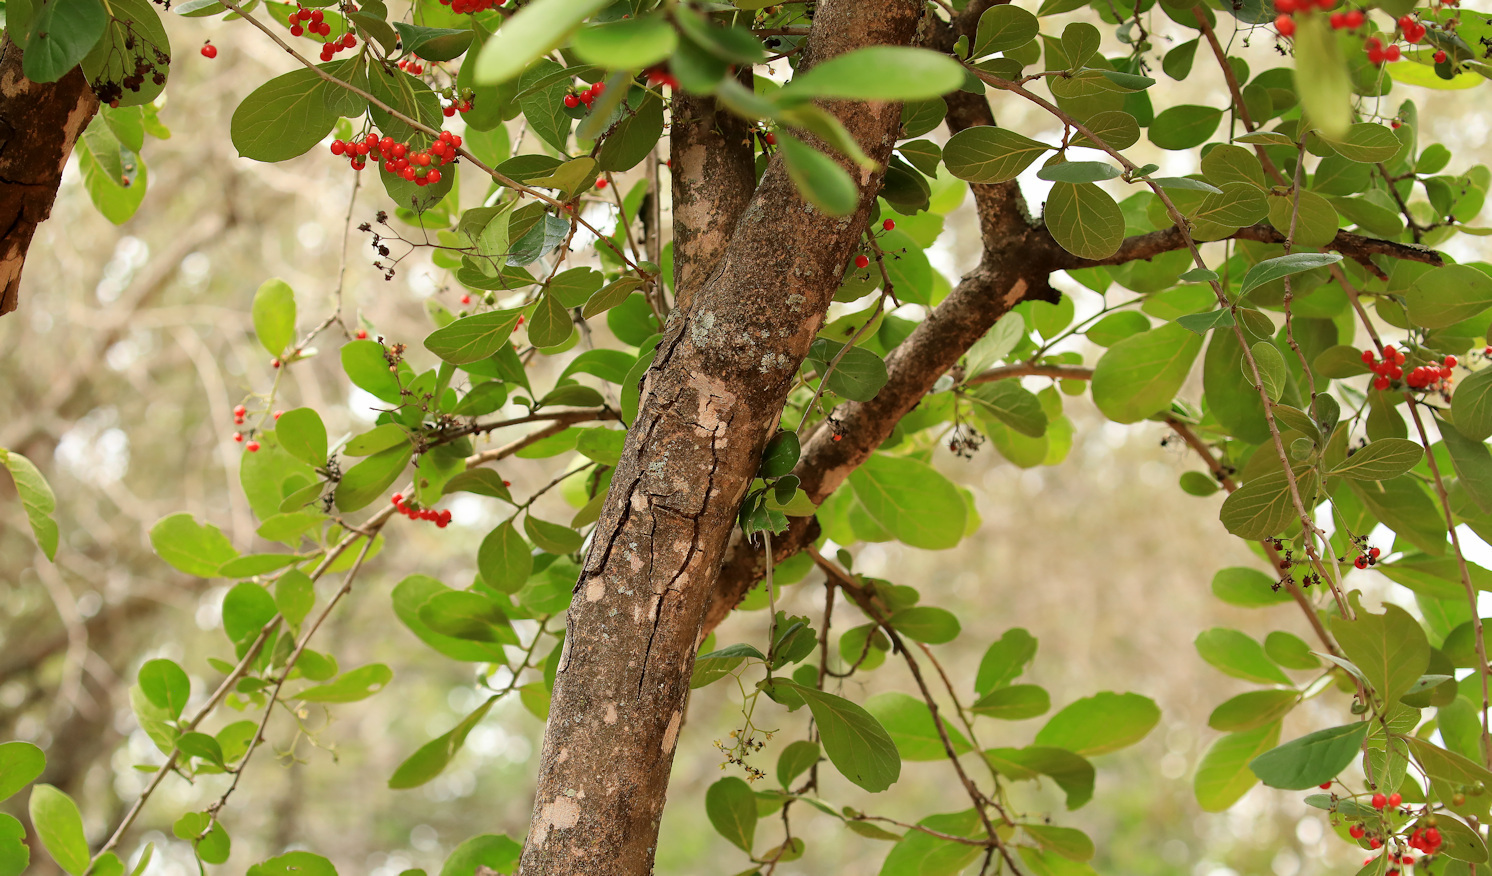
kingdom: Plantae
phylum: Tracheophyta
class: Magnoliopsida
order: Boraginales
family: Ehretiaceae
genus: Ehretia
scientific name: Ehretia amoena
